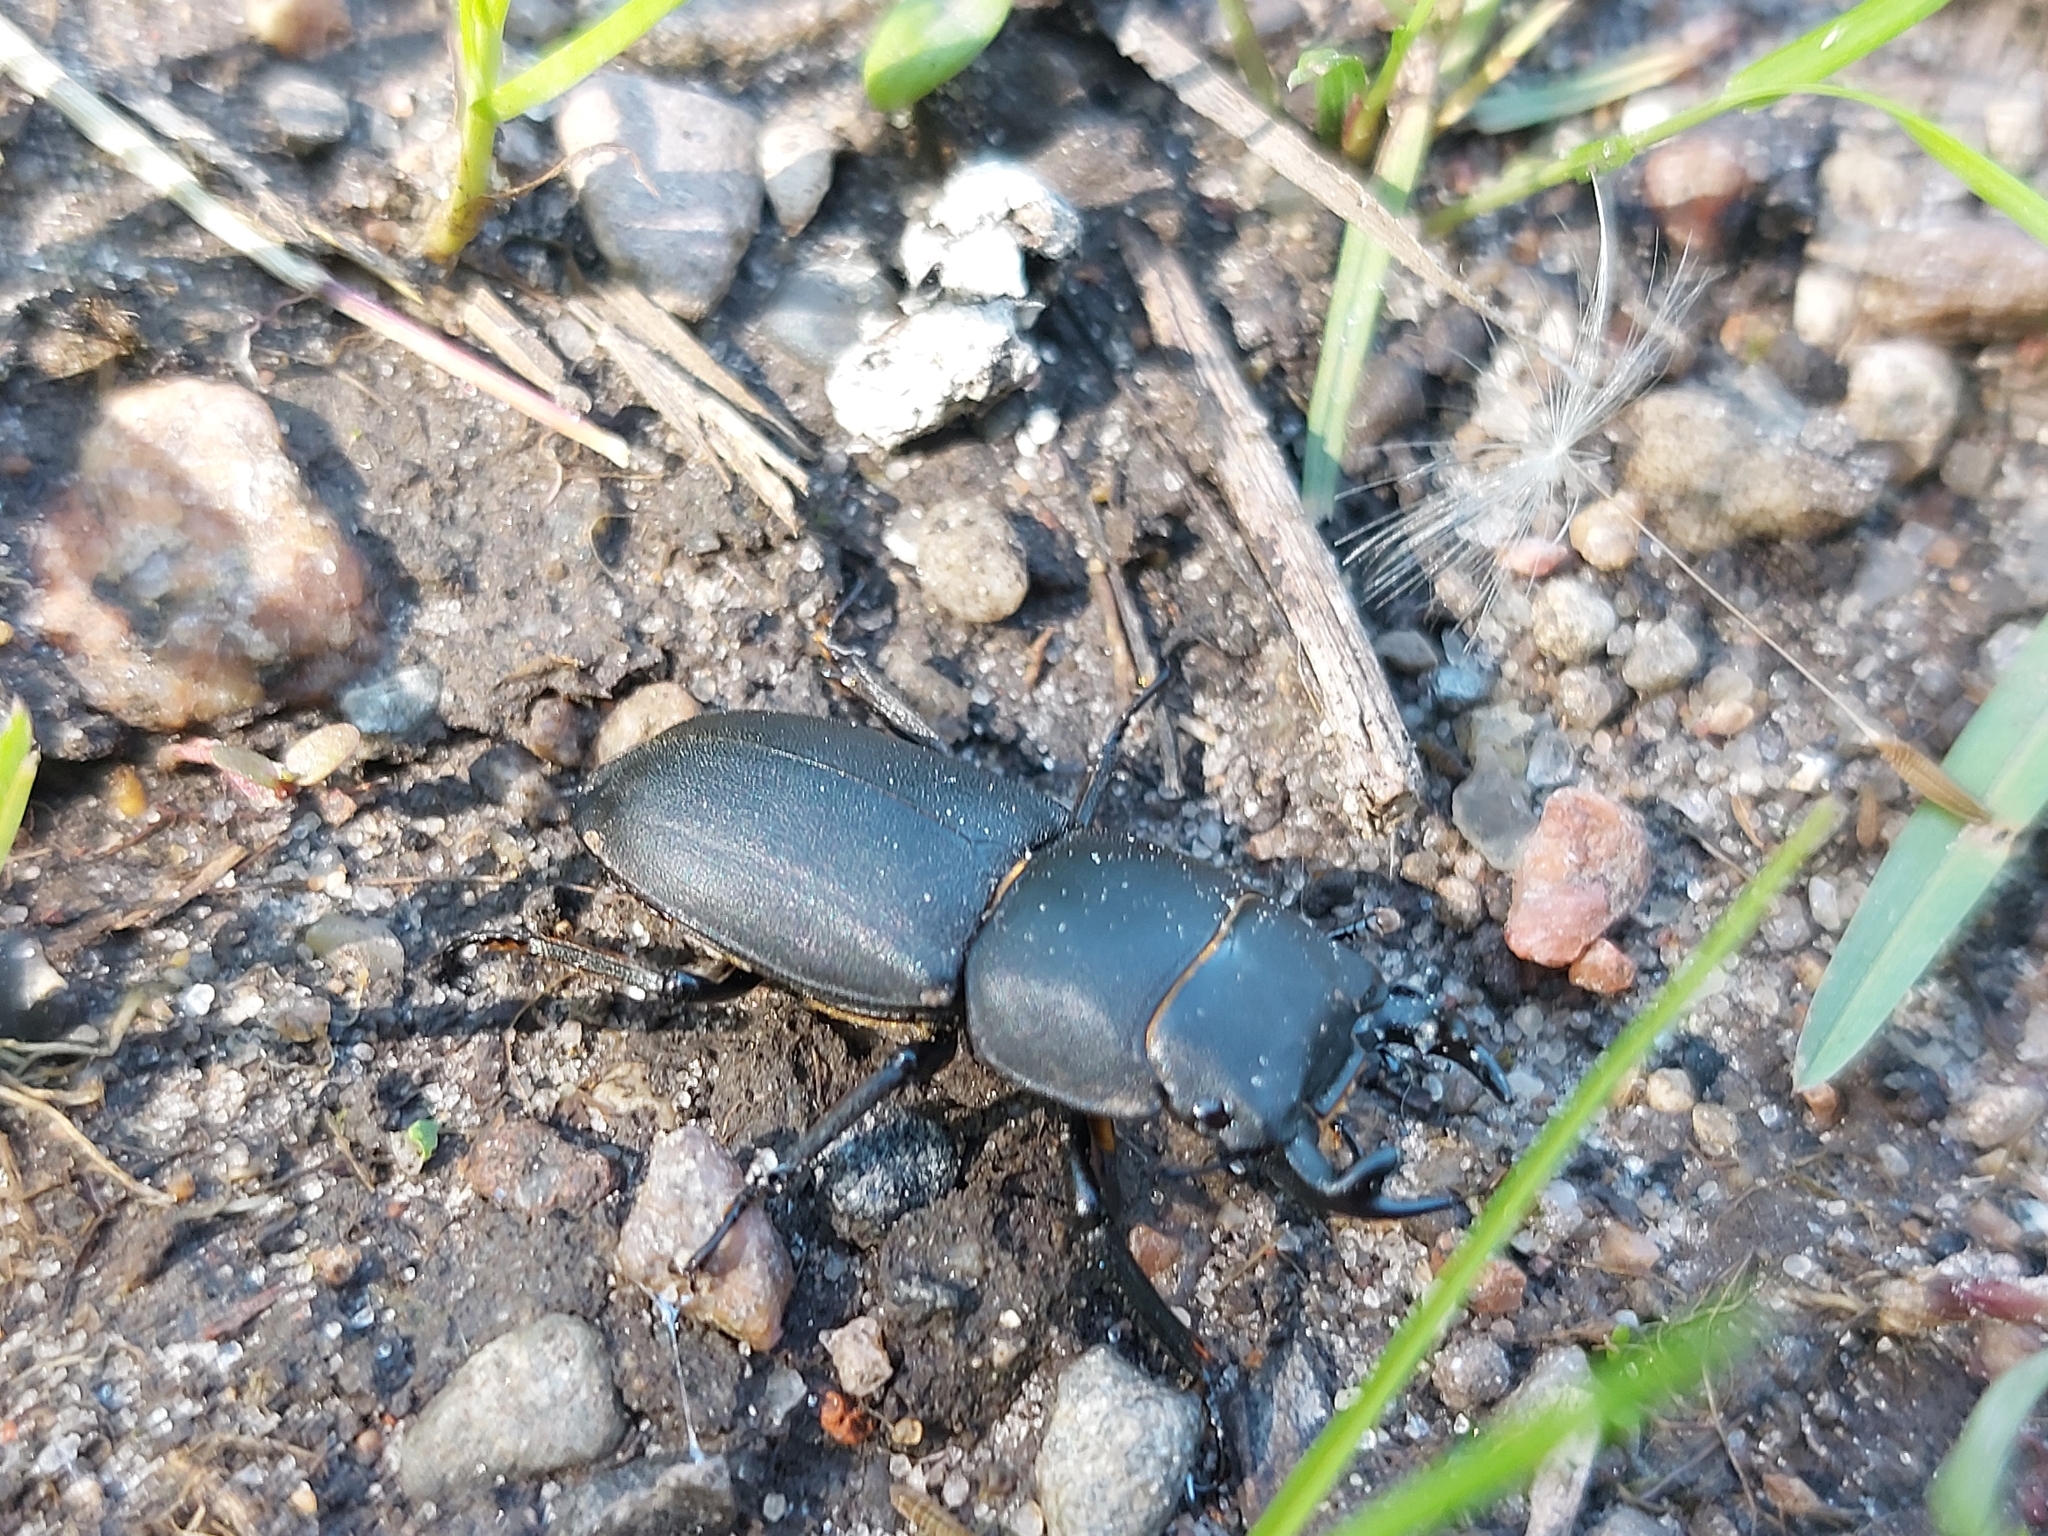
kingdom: Animalia
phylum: Arthropoda
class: Insecta
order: Coleoptera
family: Lucanidae
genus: Dorcus
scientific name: Dorcus parallelipipedus
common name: Lesser stag beetle
